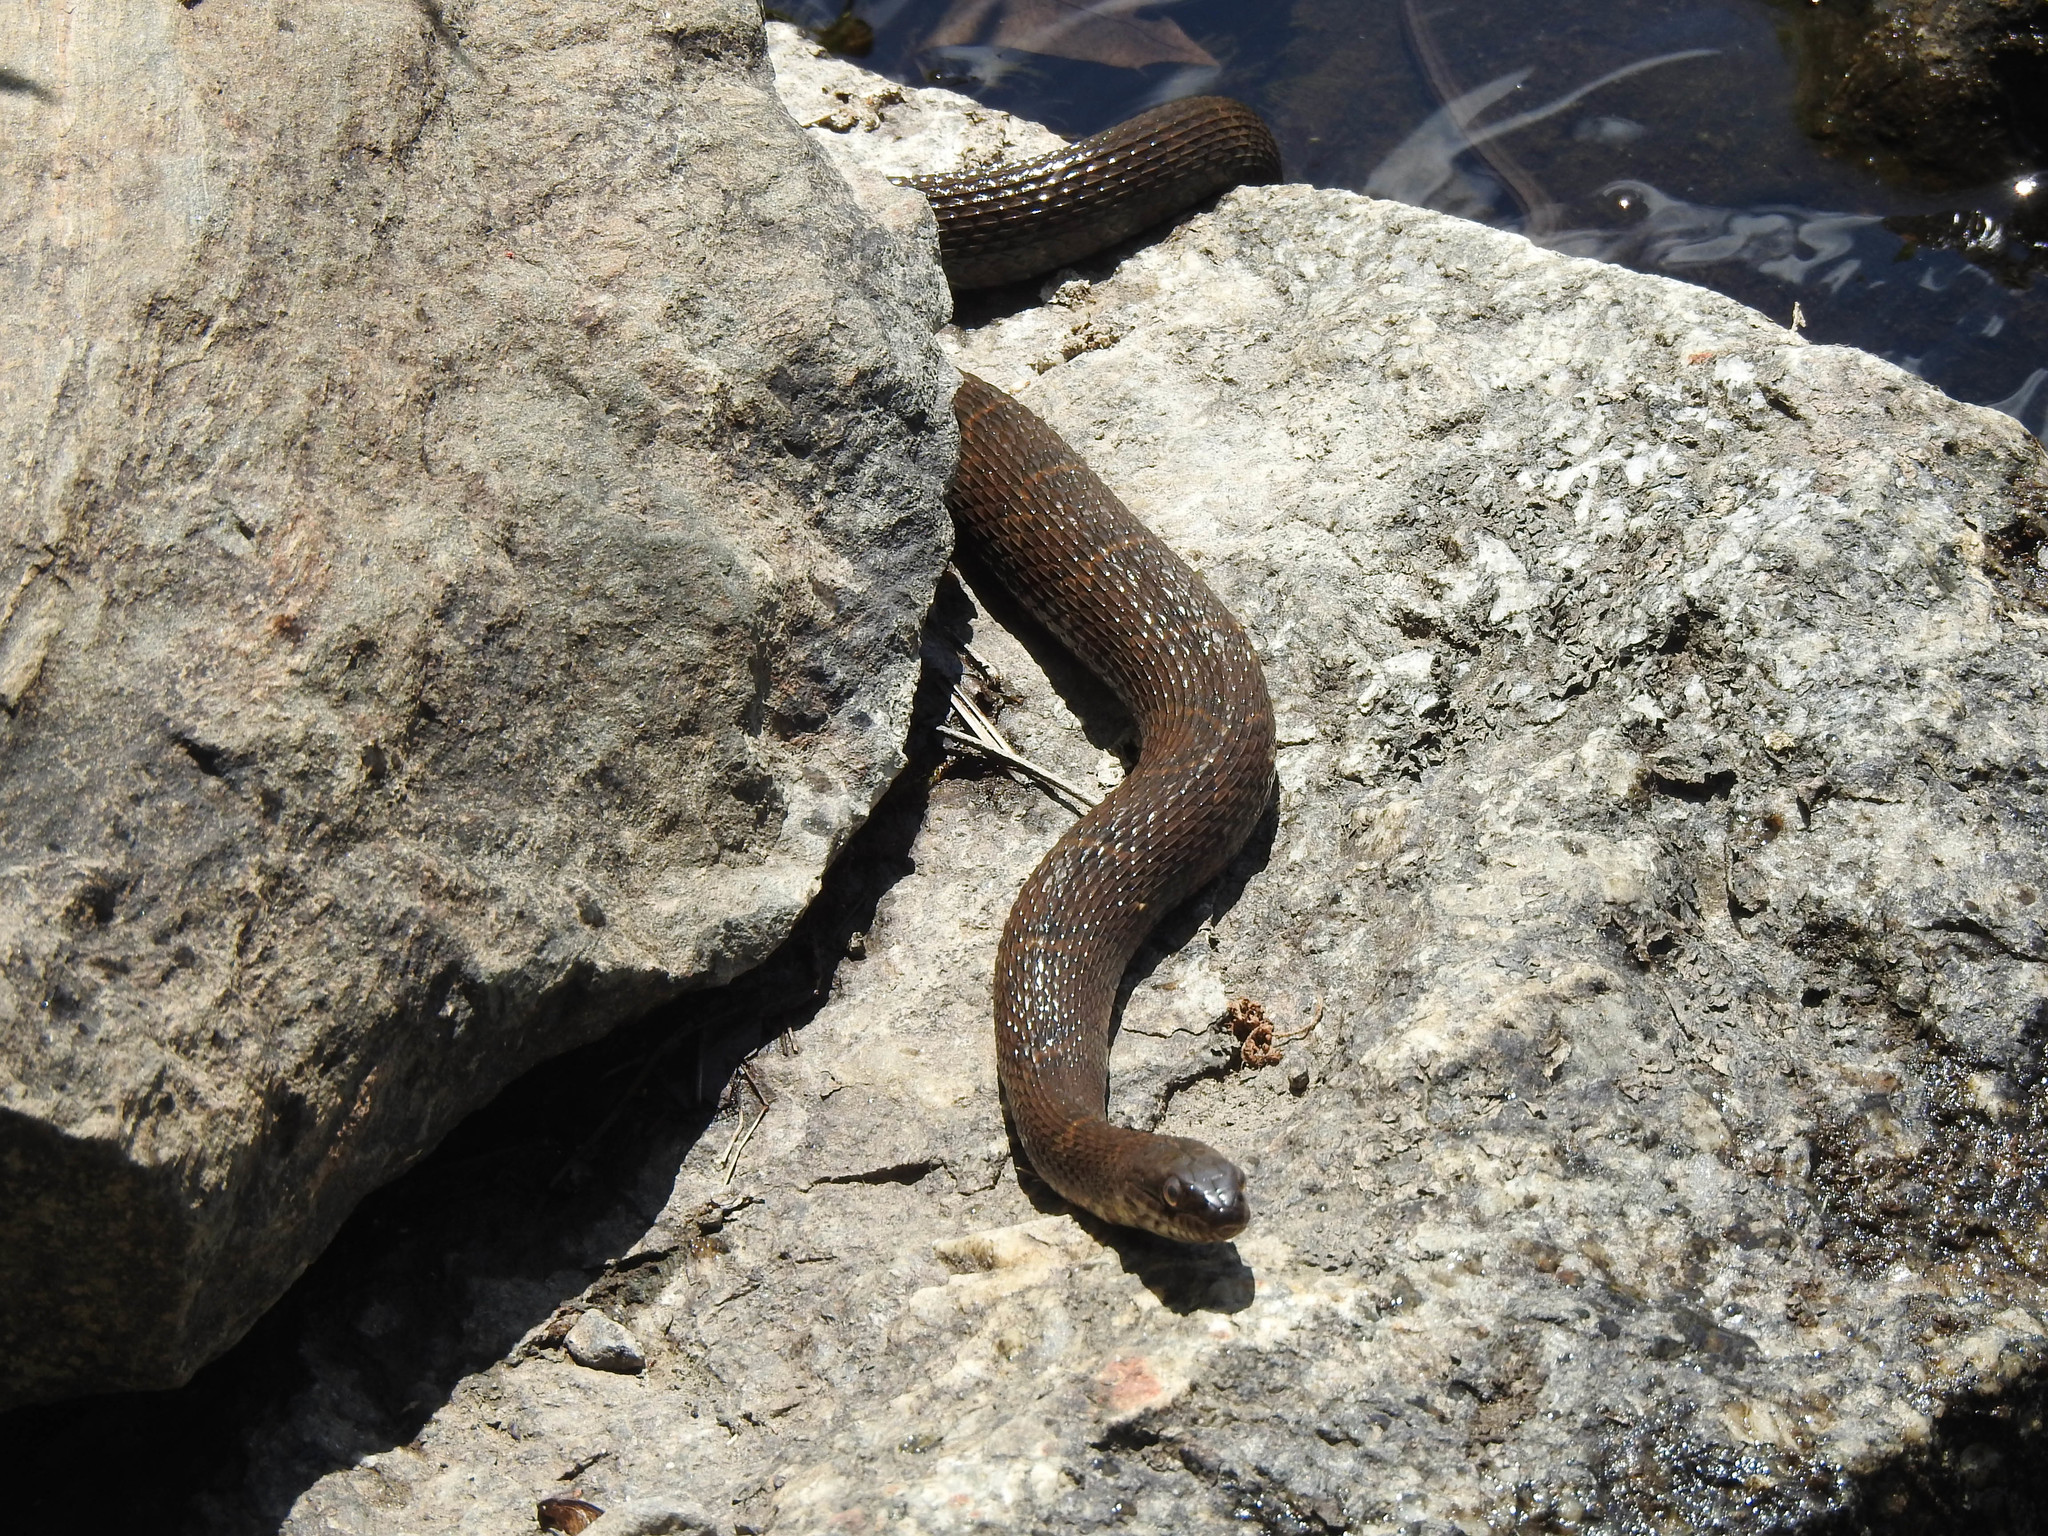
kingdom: Animalia
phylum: Chordata
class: Squamata
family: Colubridae
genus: Nerodia
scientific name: Nerodia sipedon
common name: Northern water snake
